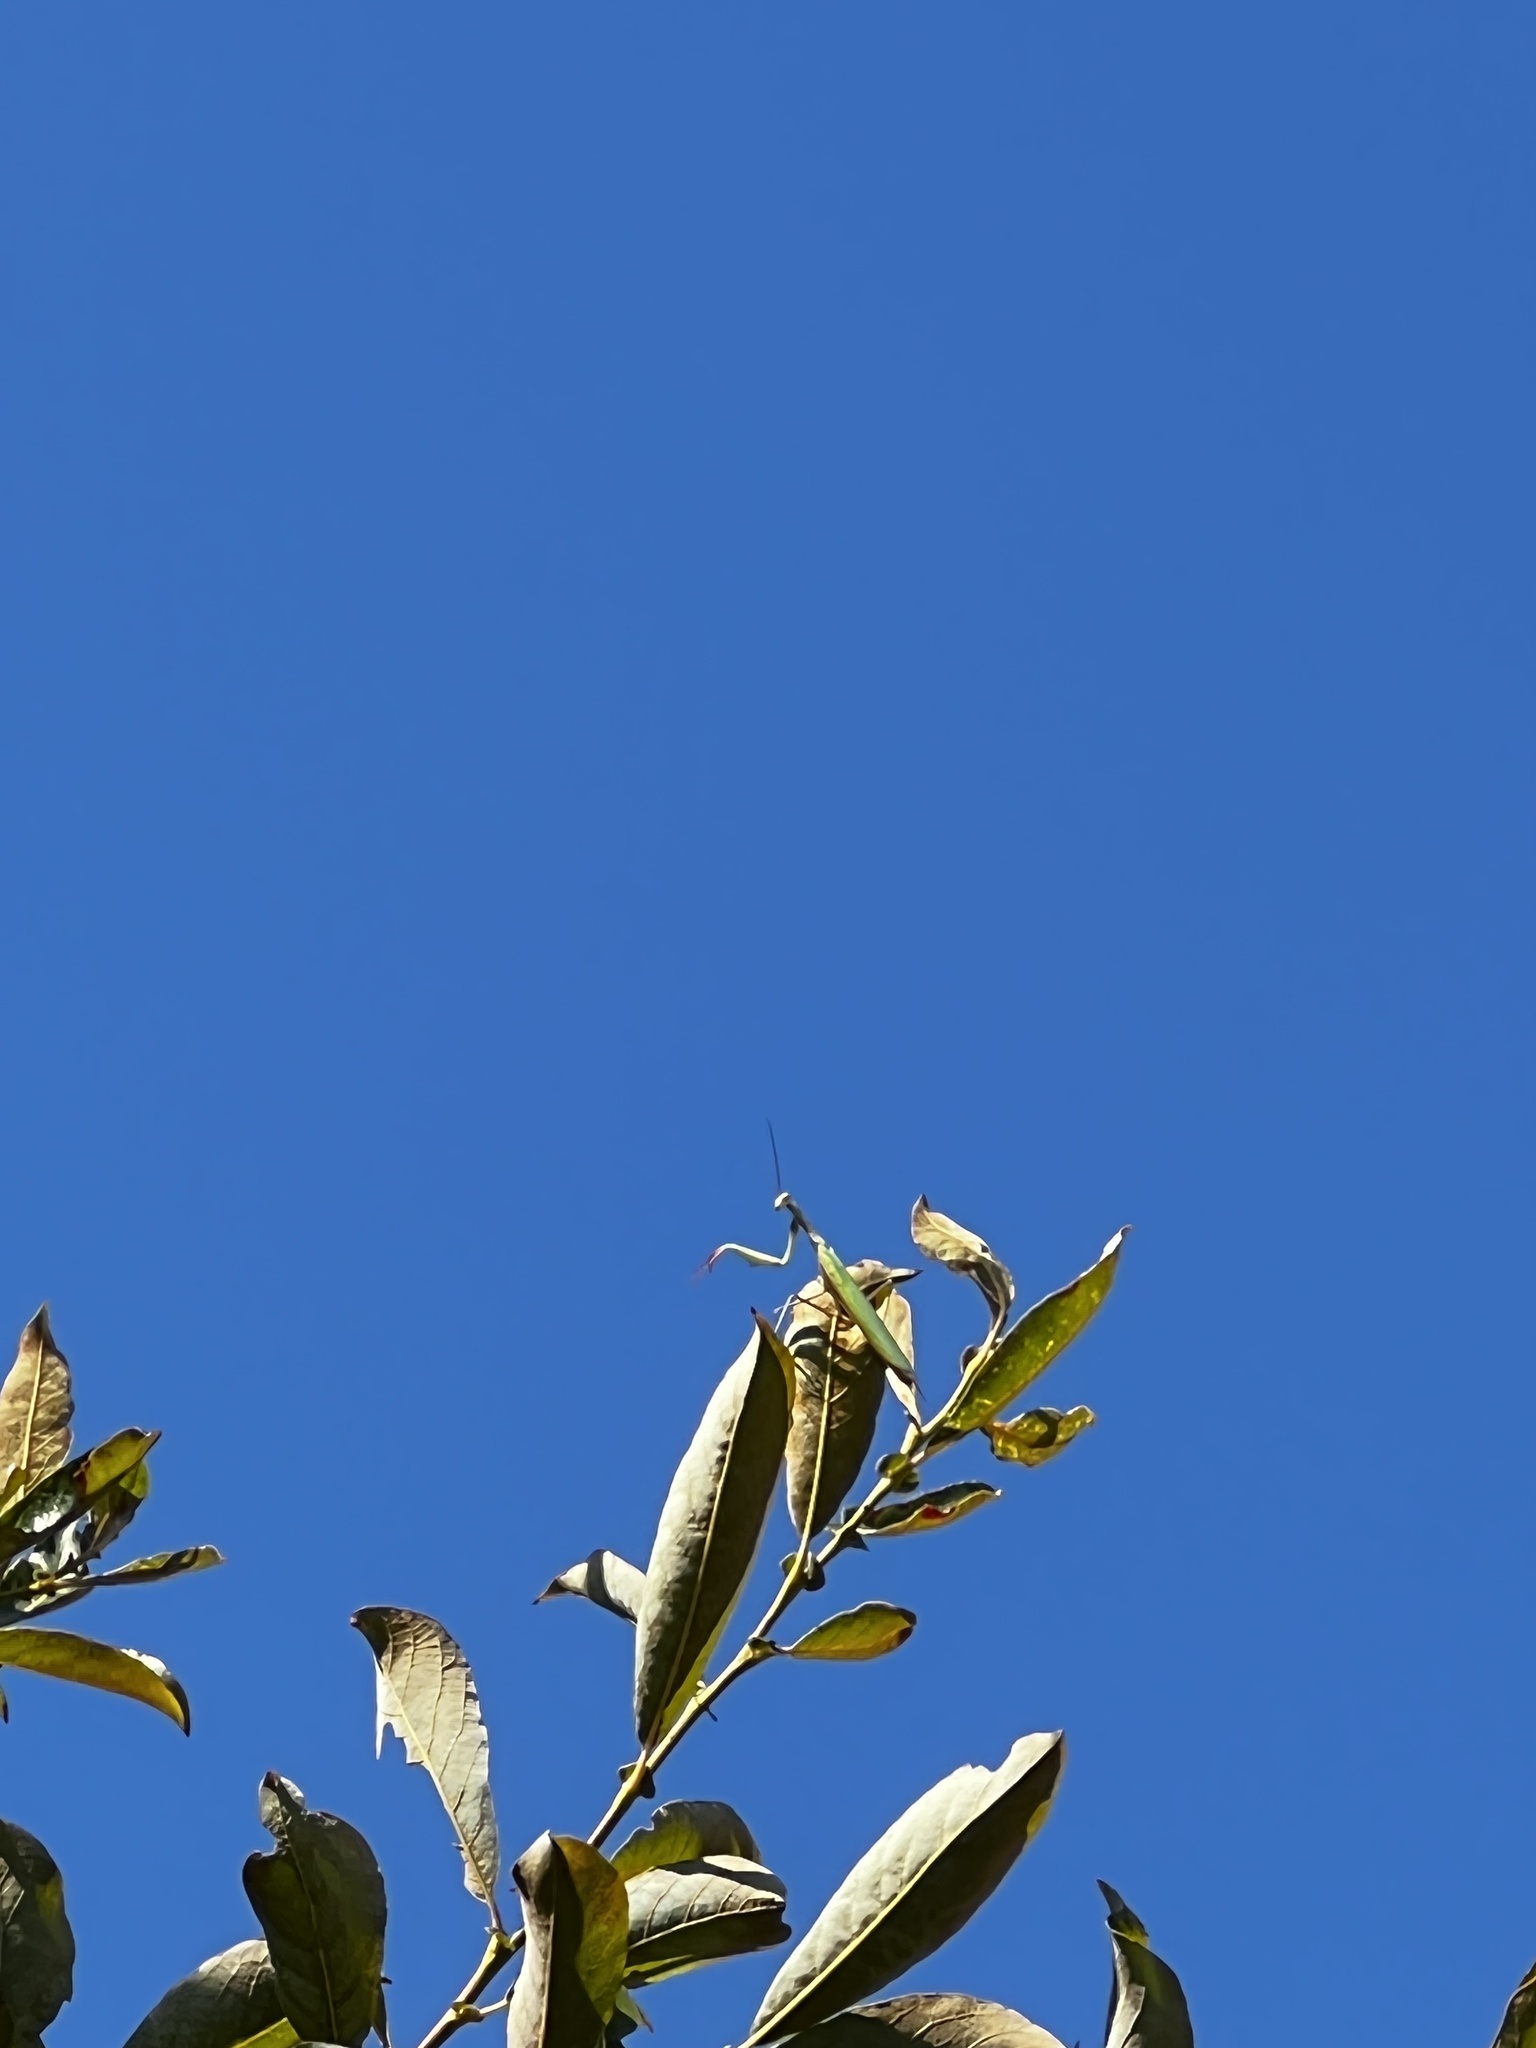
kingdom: Animalia
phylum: Arthropoda
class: Insecta
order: Mantodea
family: Mantidae
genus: Mantis
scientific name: Mantis religiosa
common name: Praying mantis
